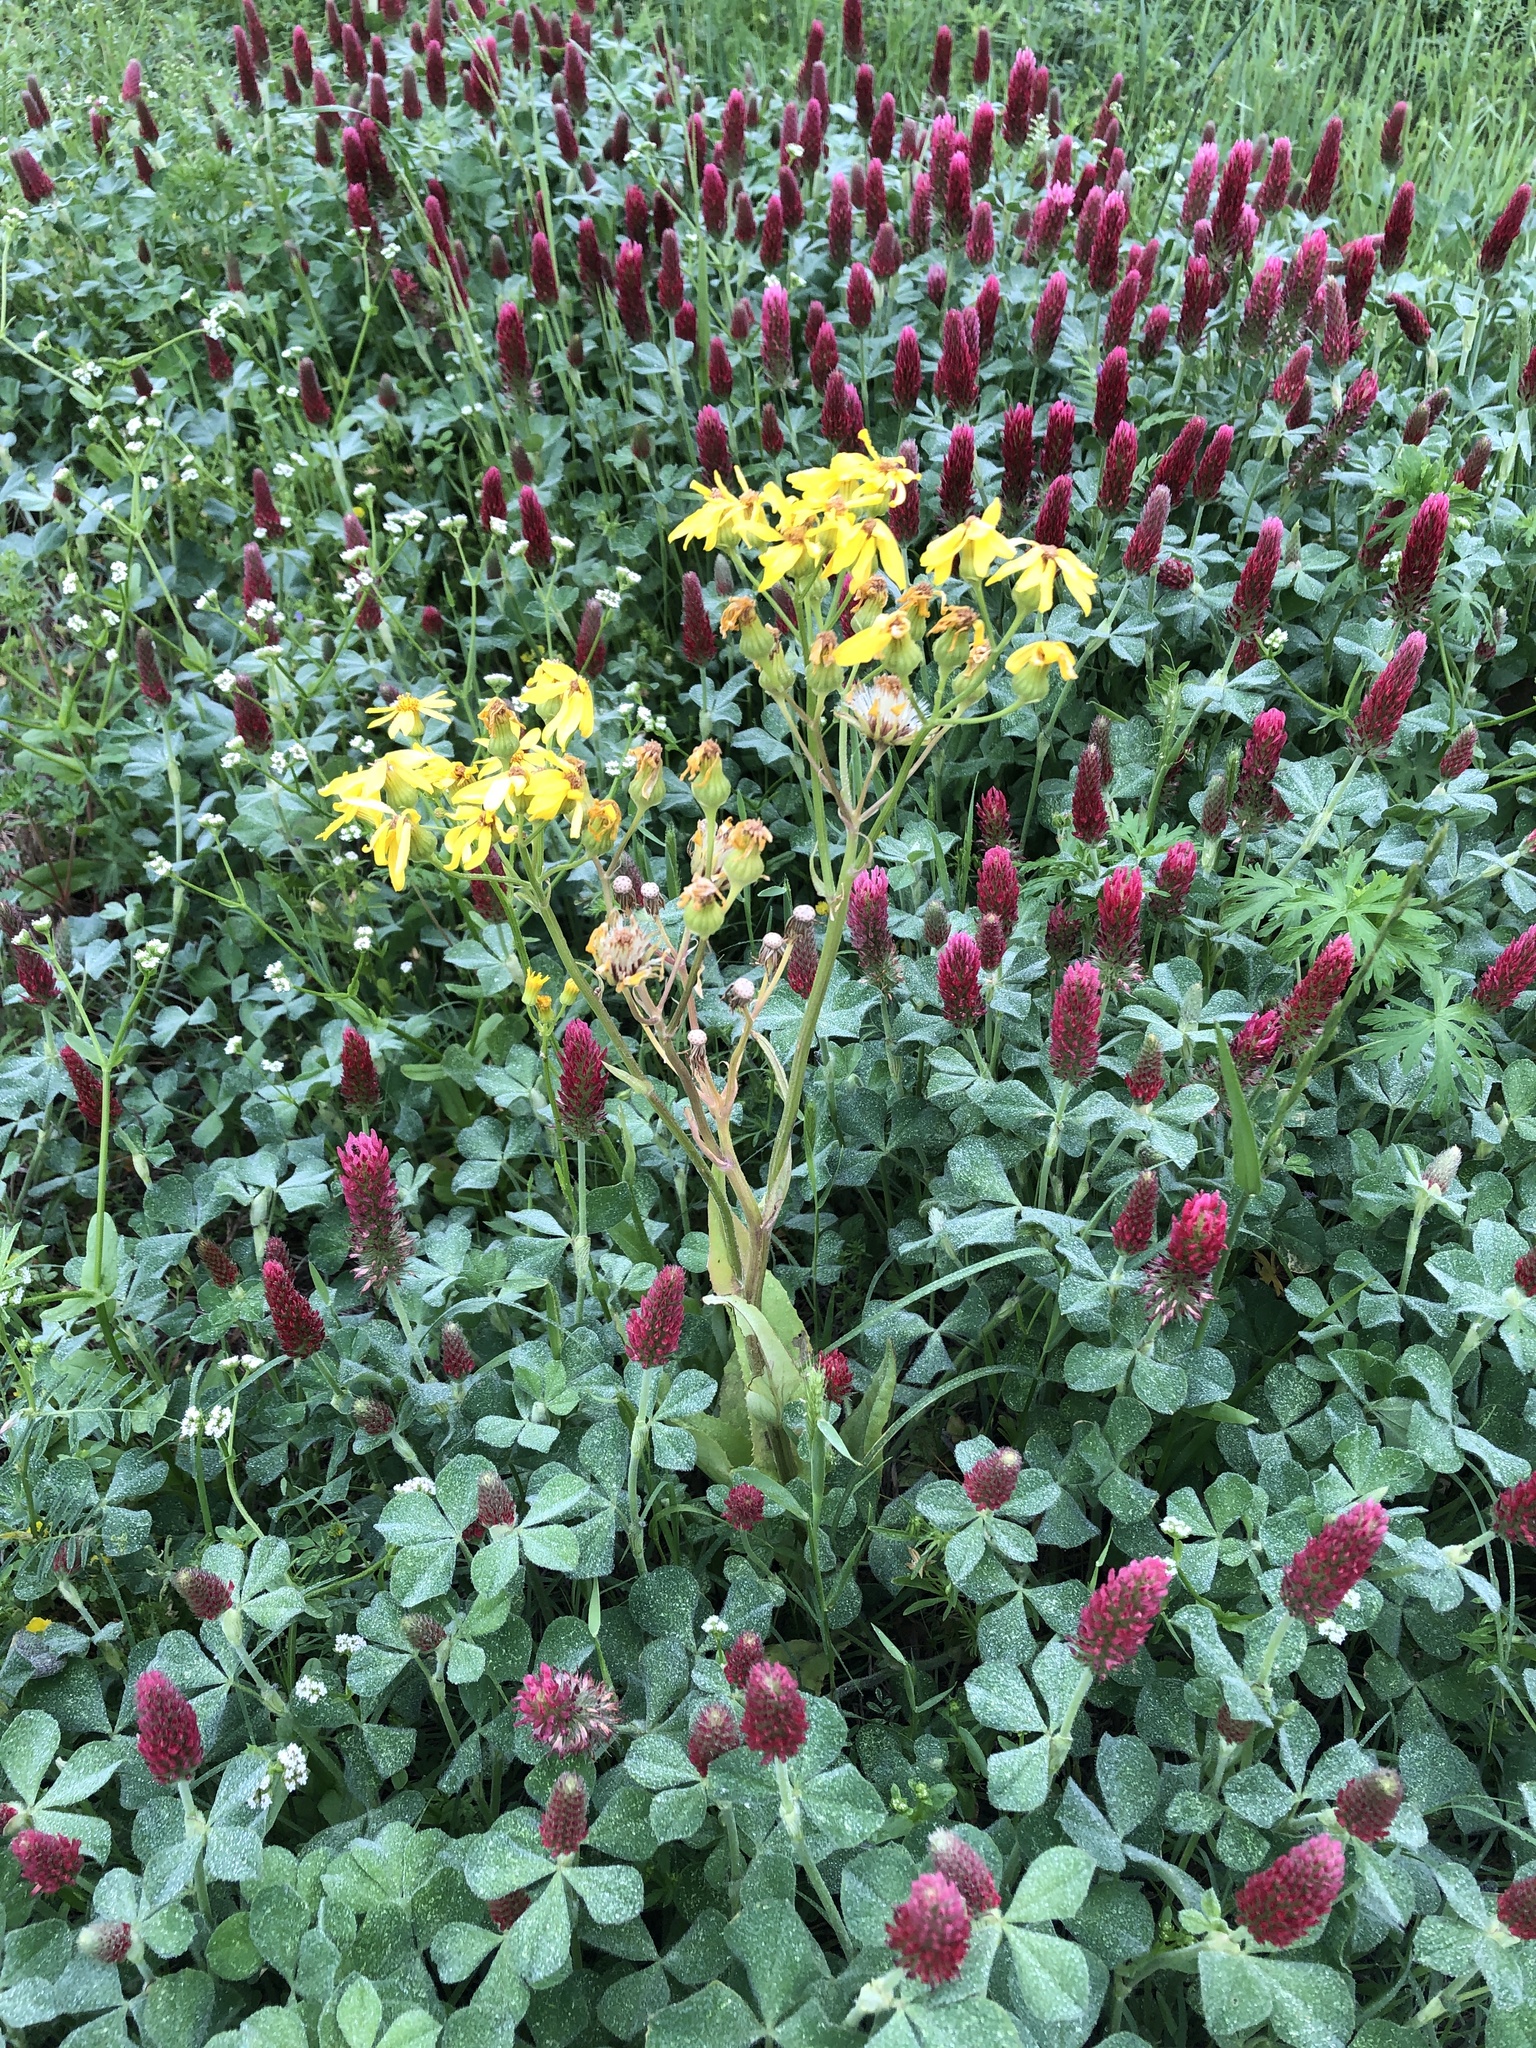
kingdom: Plantae
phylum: Tracheophyta
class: Magnoliopsida
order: Asterales
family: Asteraceae
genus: Senecio
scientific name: Senecio ampullaceus
